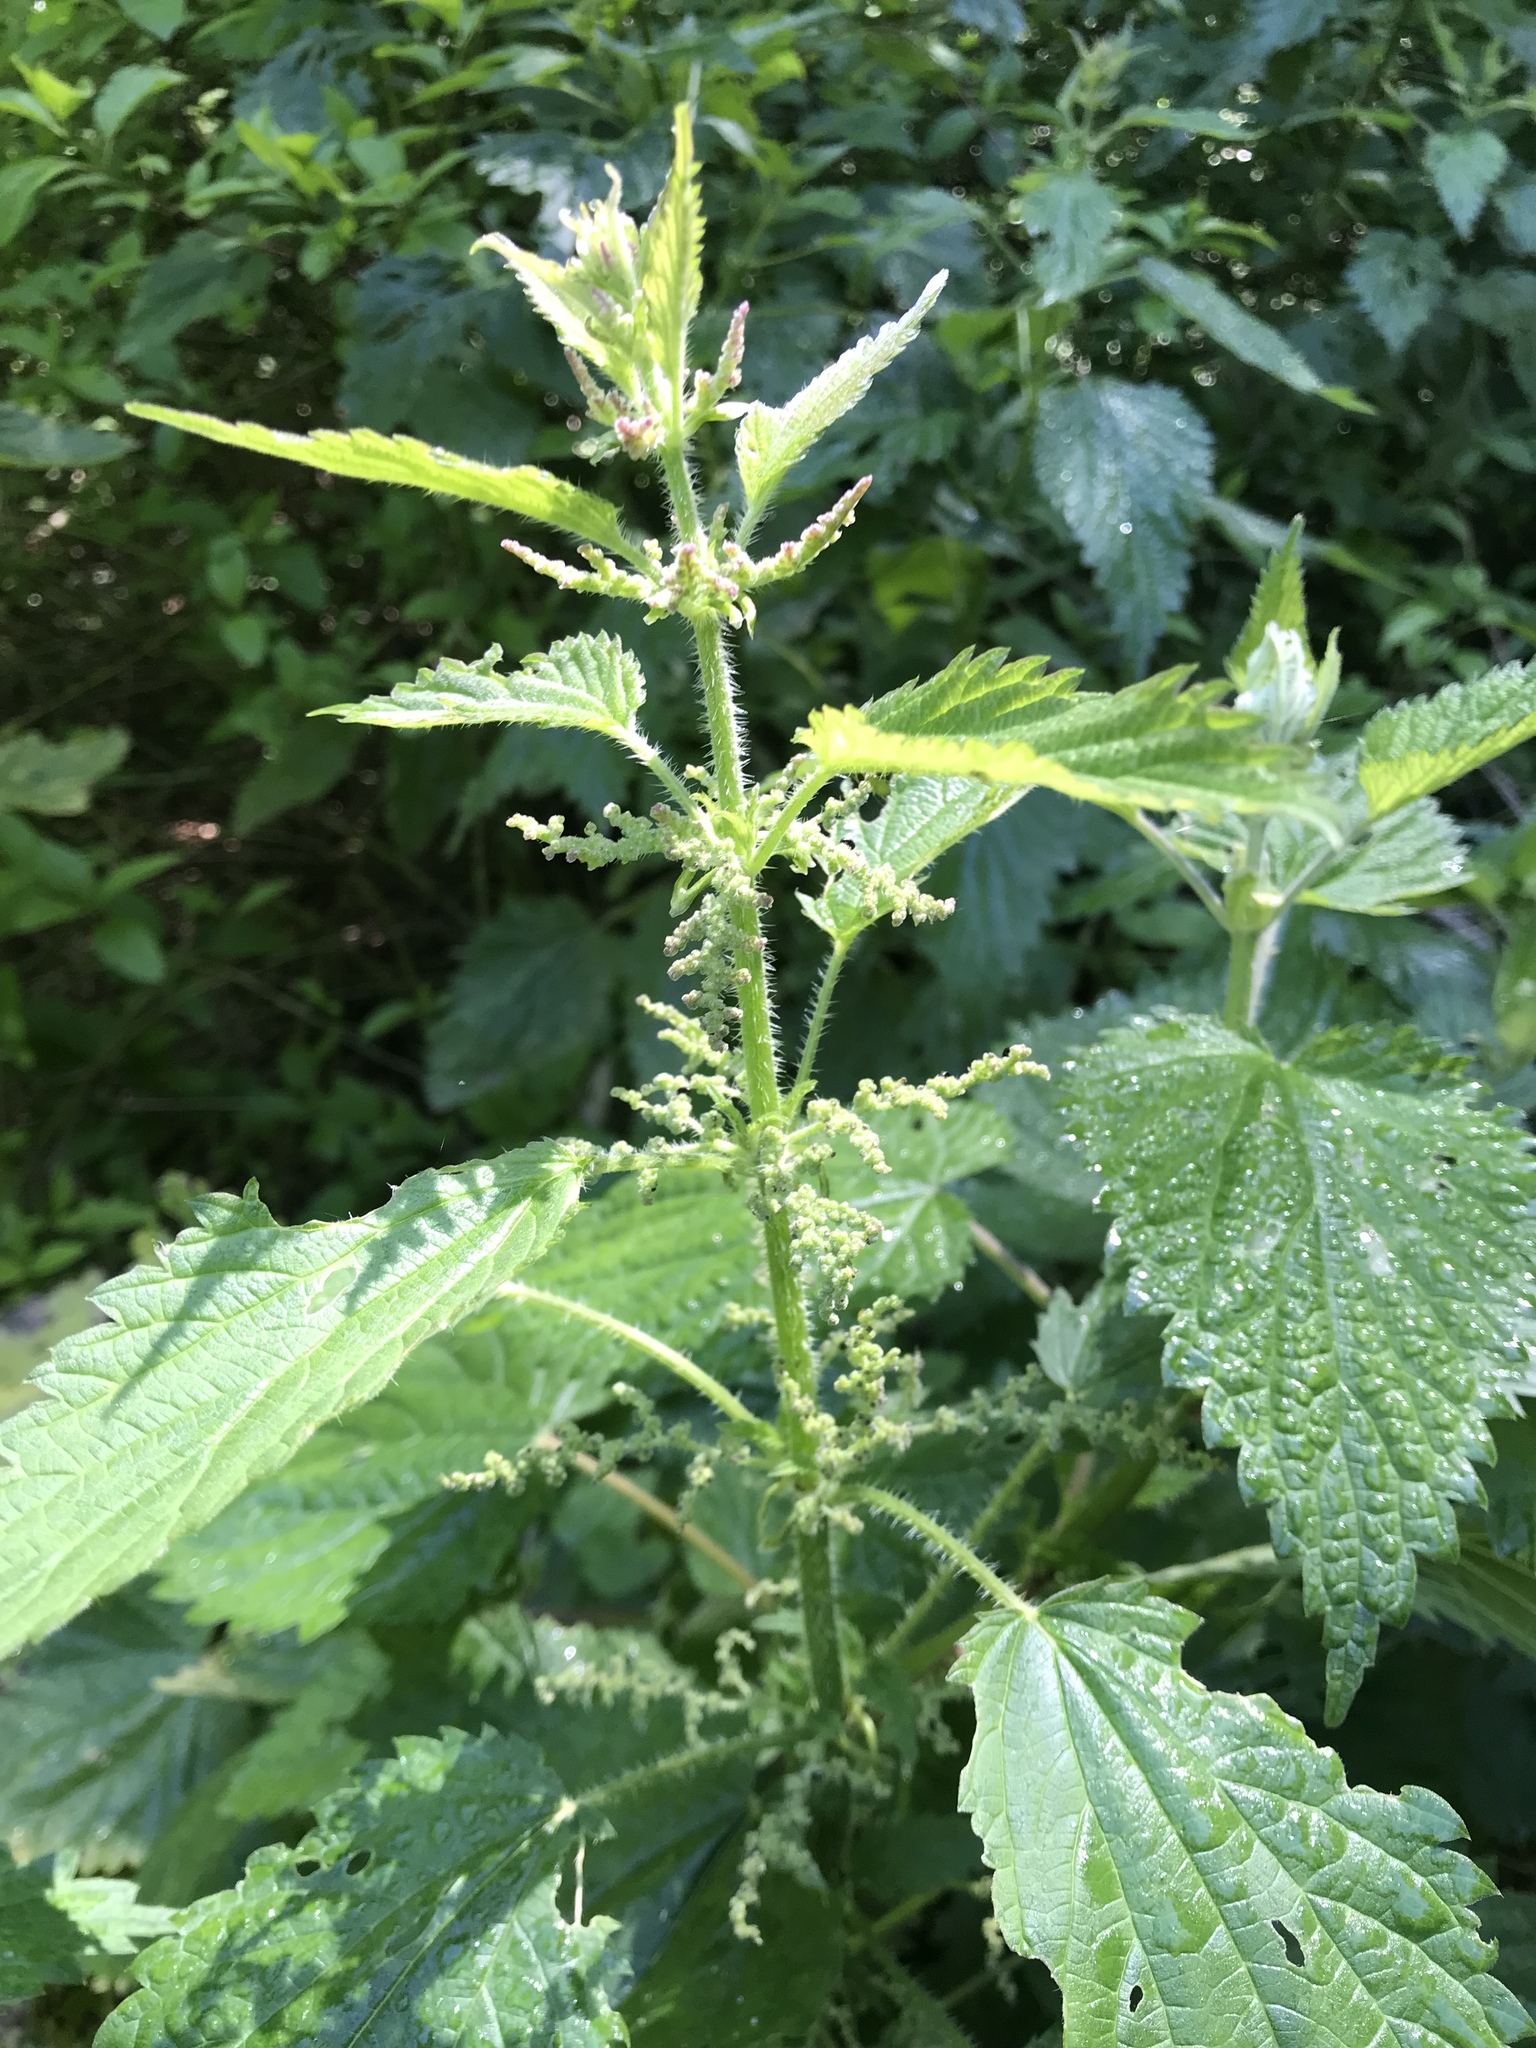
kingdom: Plantae
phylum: Tracheophyta
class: Magnoliopsida
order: Rosales
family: Urticaceae
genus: Urtica
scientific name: Urtica dioica
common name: Common nettle
